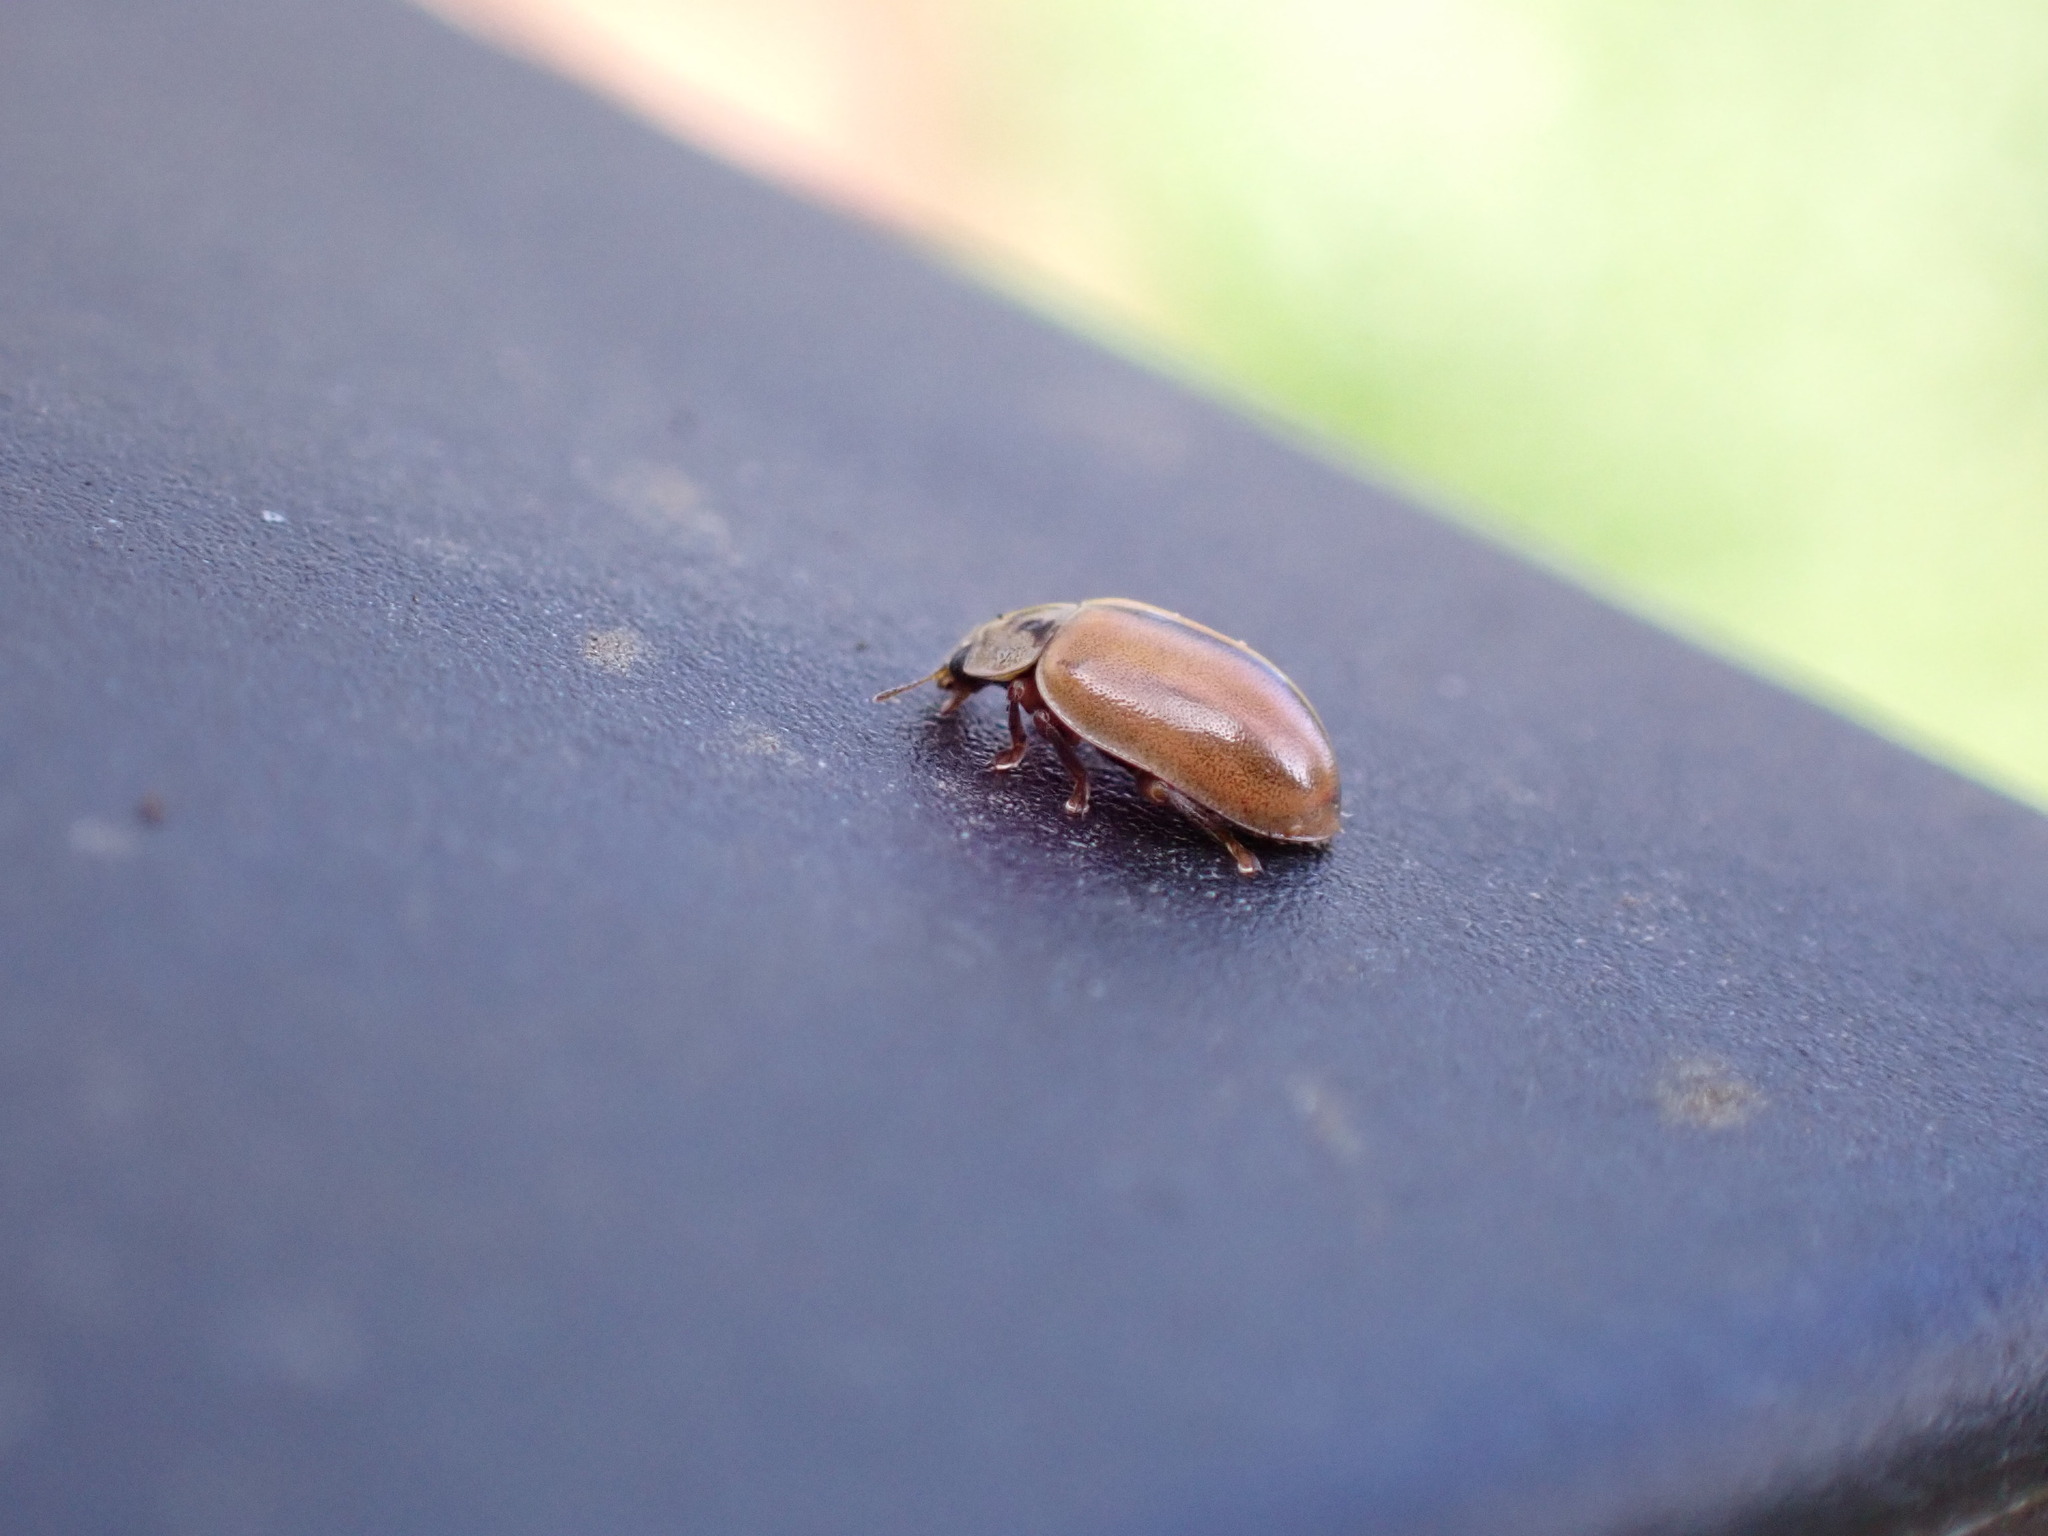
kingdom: Animalia
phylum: Arthropoda
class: Insecta
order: Coleoptera
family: Coccinellidae
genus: Aphidecta
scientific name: Aphidecta obliterata
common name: Larch ladybird
